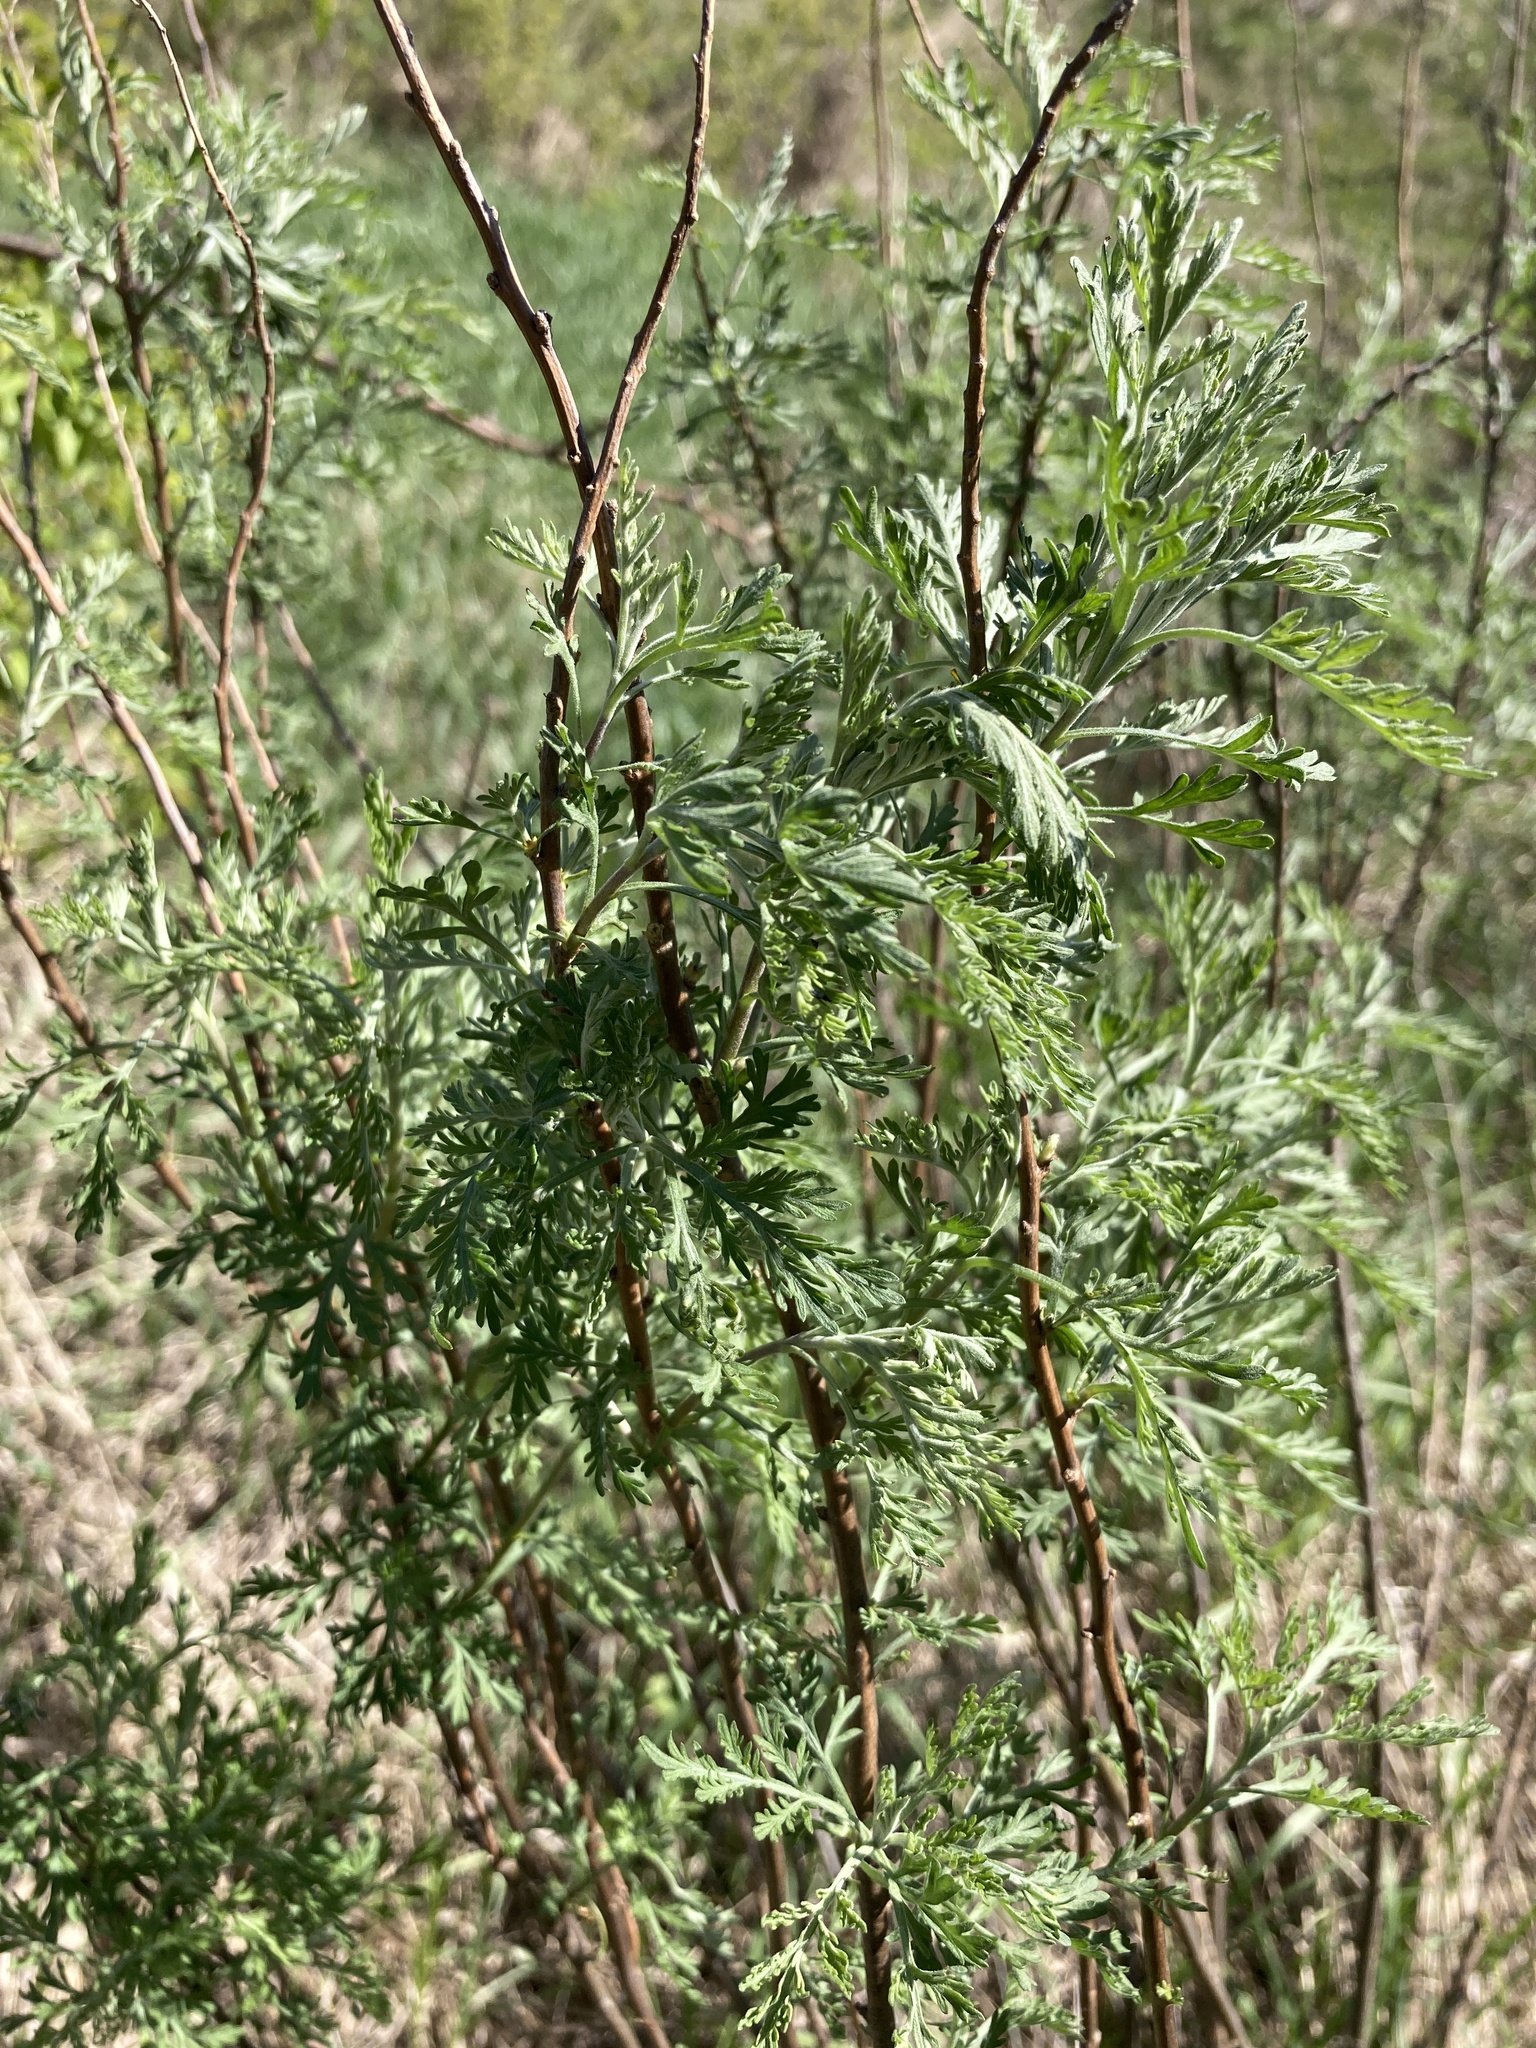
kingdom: Plantae
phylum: Tracheophyta
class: Magnoliopsida
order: Asterales
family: Asteraceae
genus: Artemisia
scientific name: Artemisia abrotanum
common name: Southernwood
